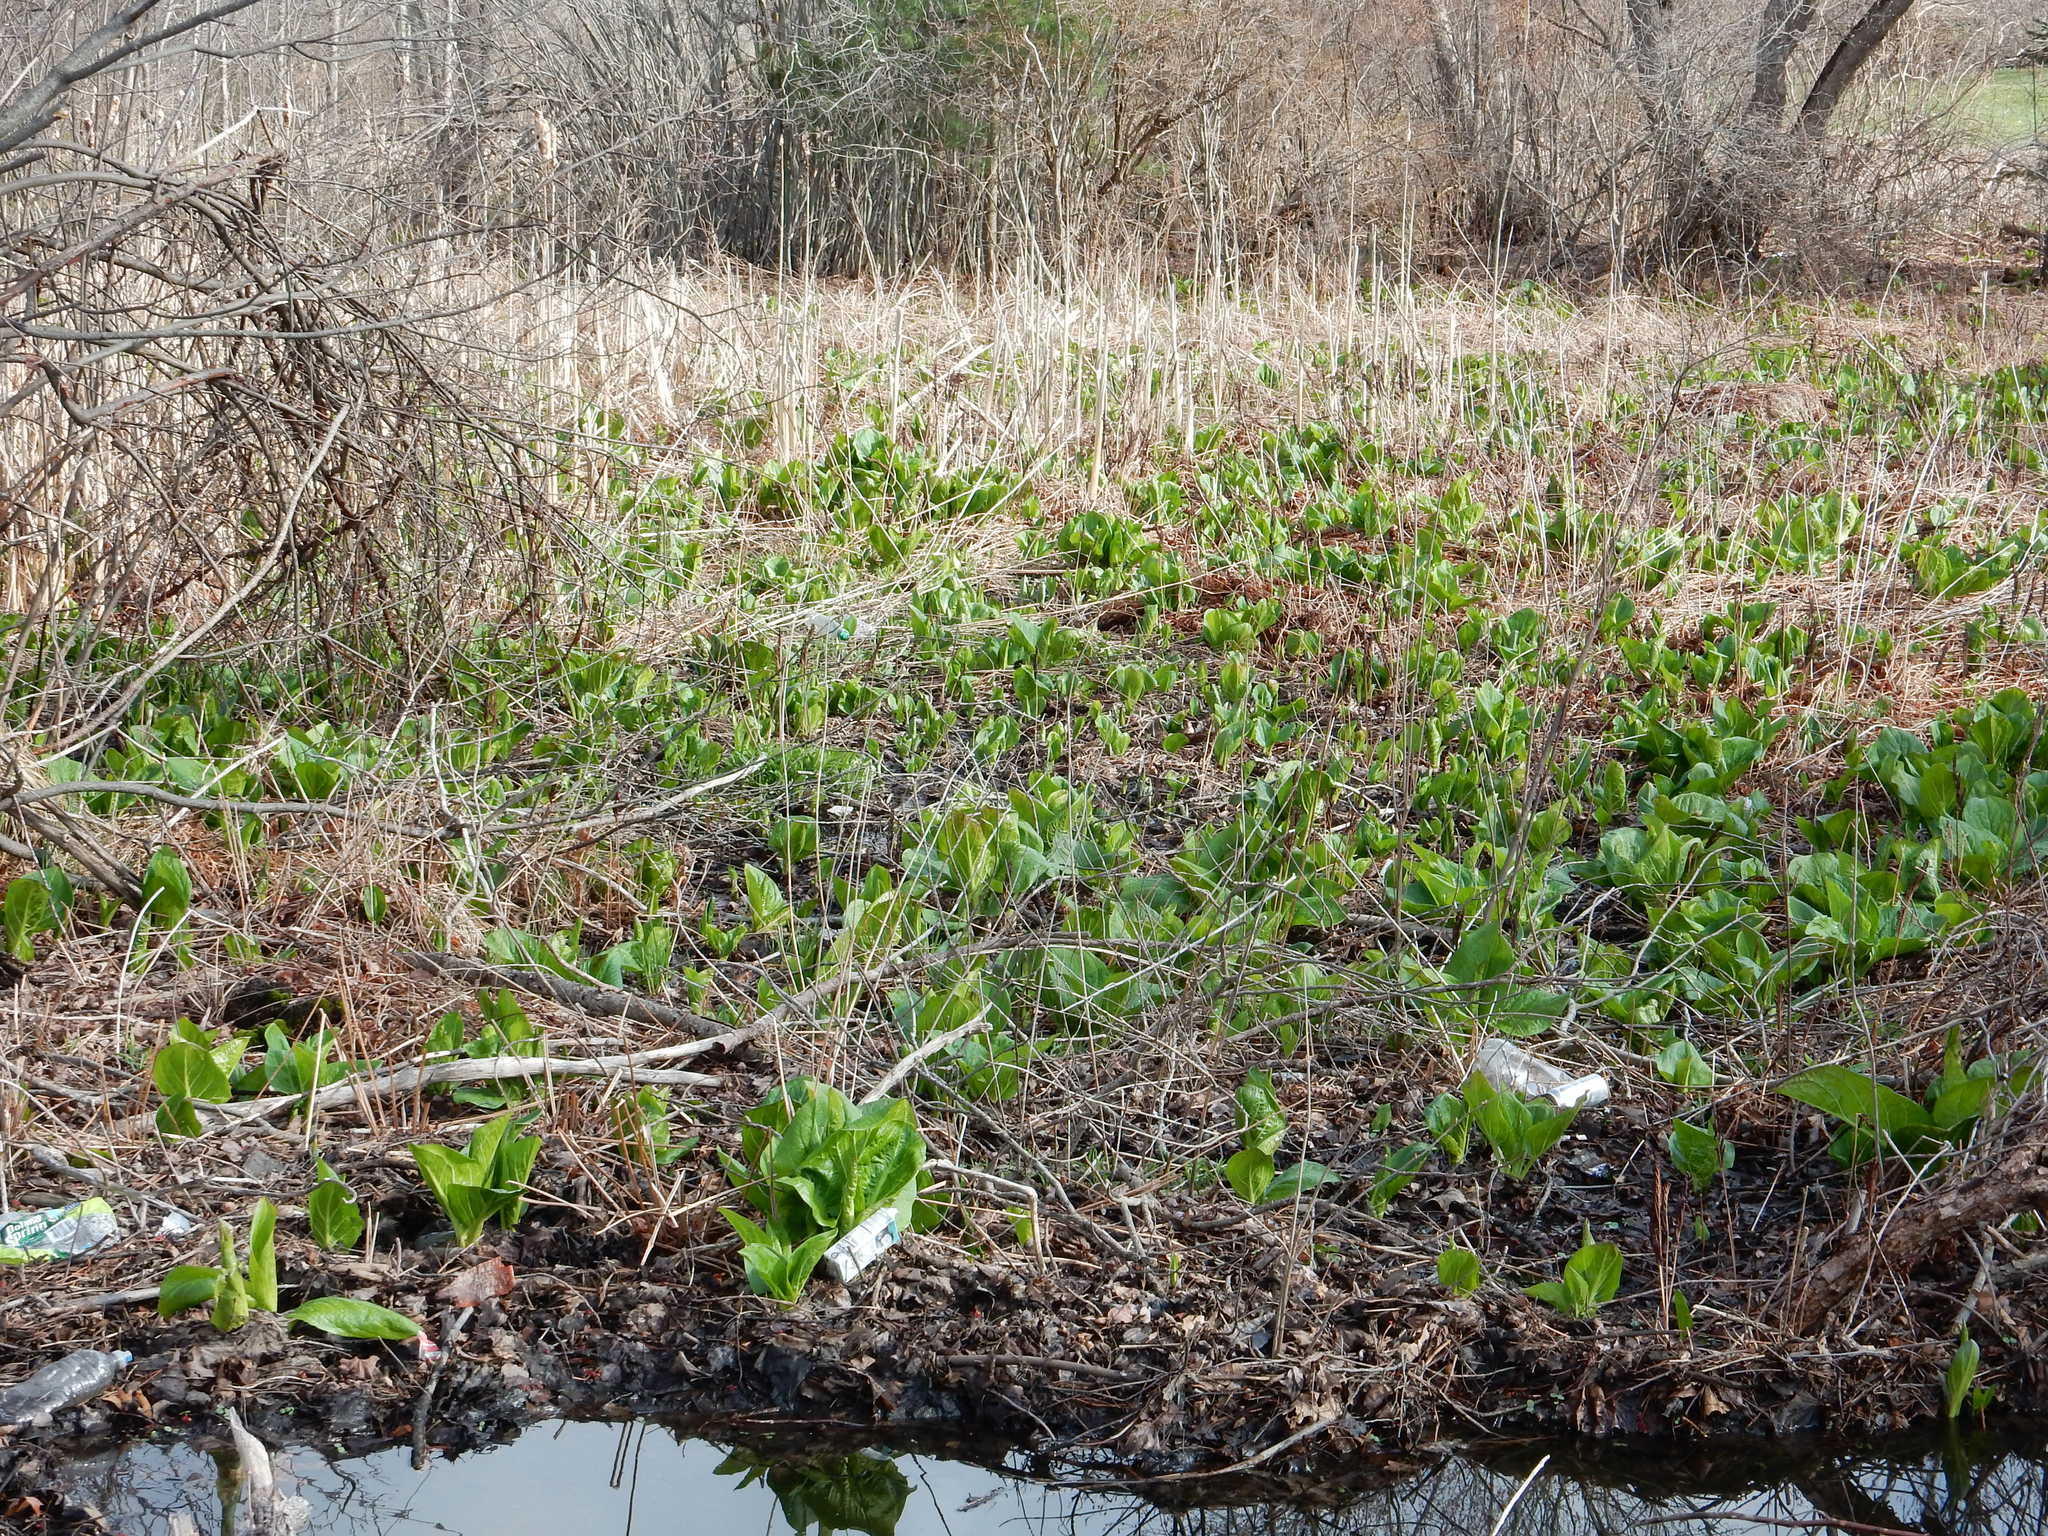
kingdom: Plantae
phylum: Tracheophyta
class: Liliopsida
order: Alismatales
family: Araceae
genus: Symplocarpus
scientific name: Symplocarpus foetidus
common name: Eastern skunk cabbage
